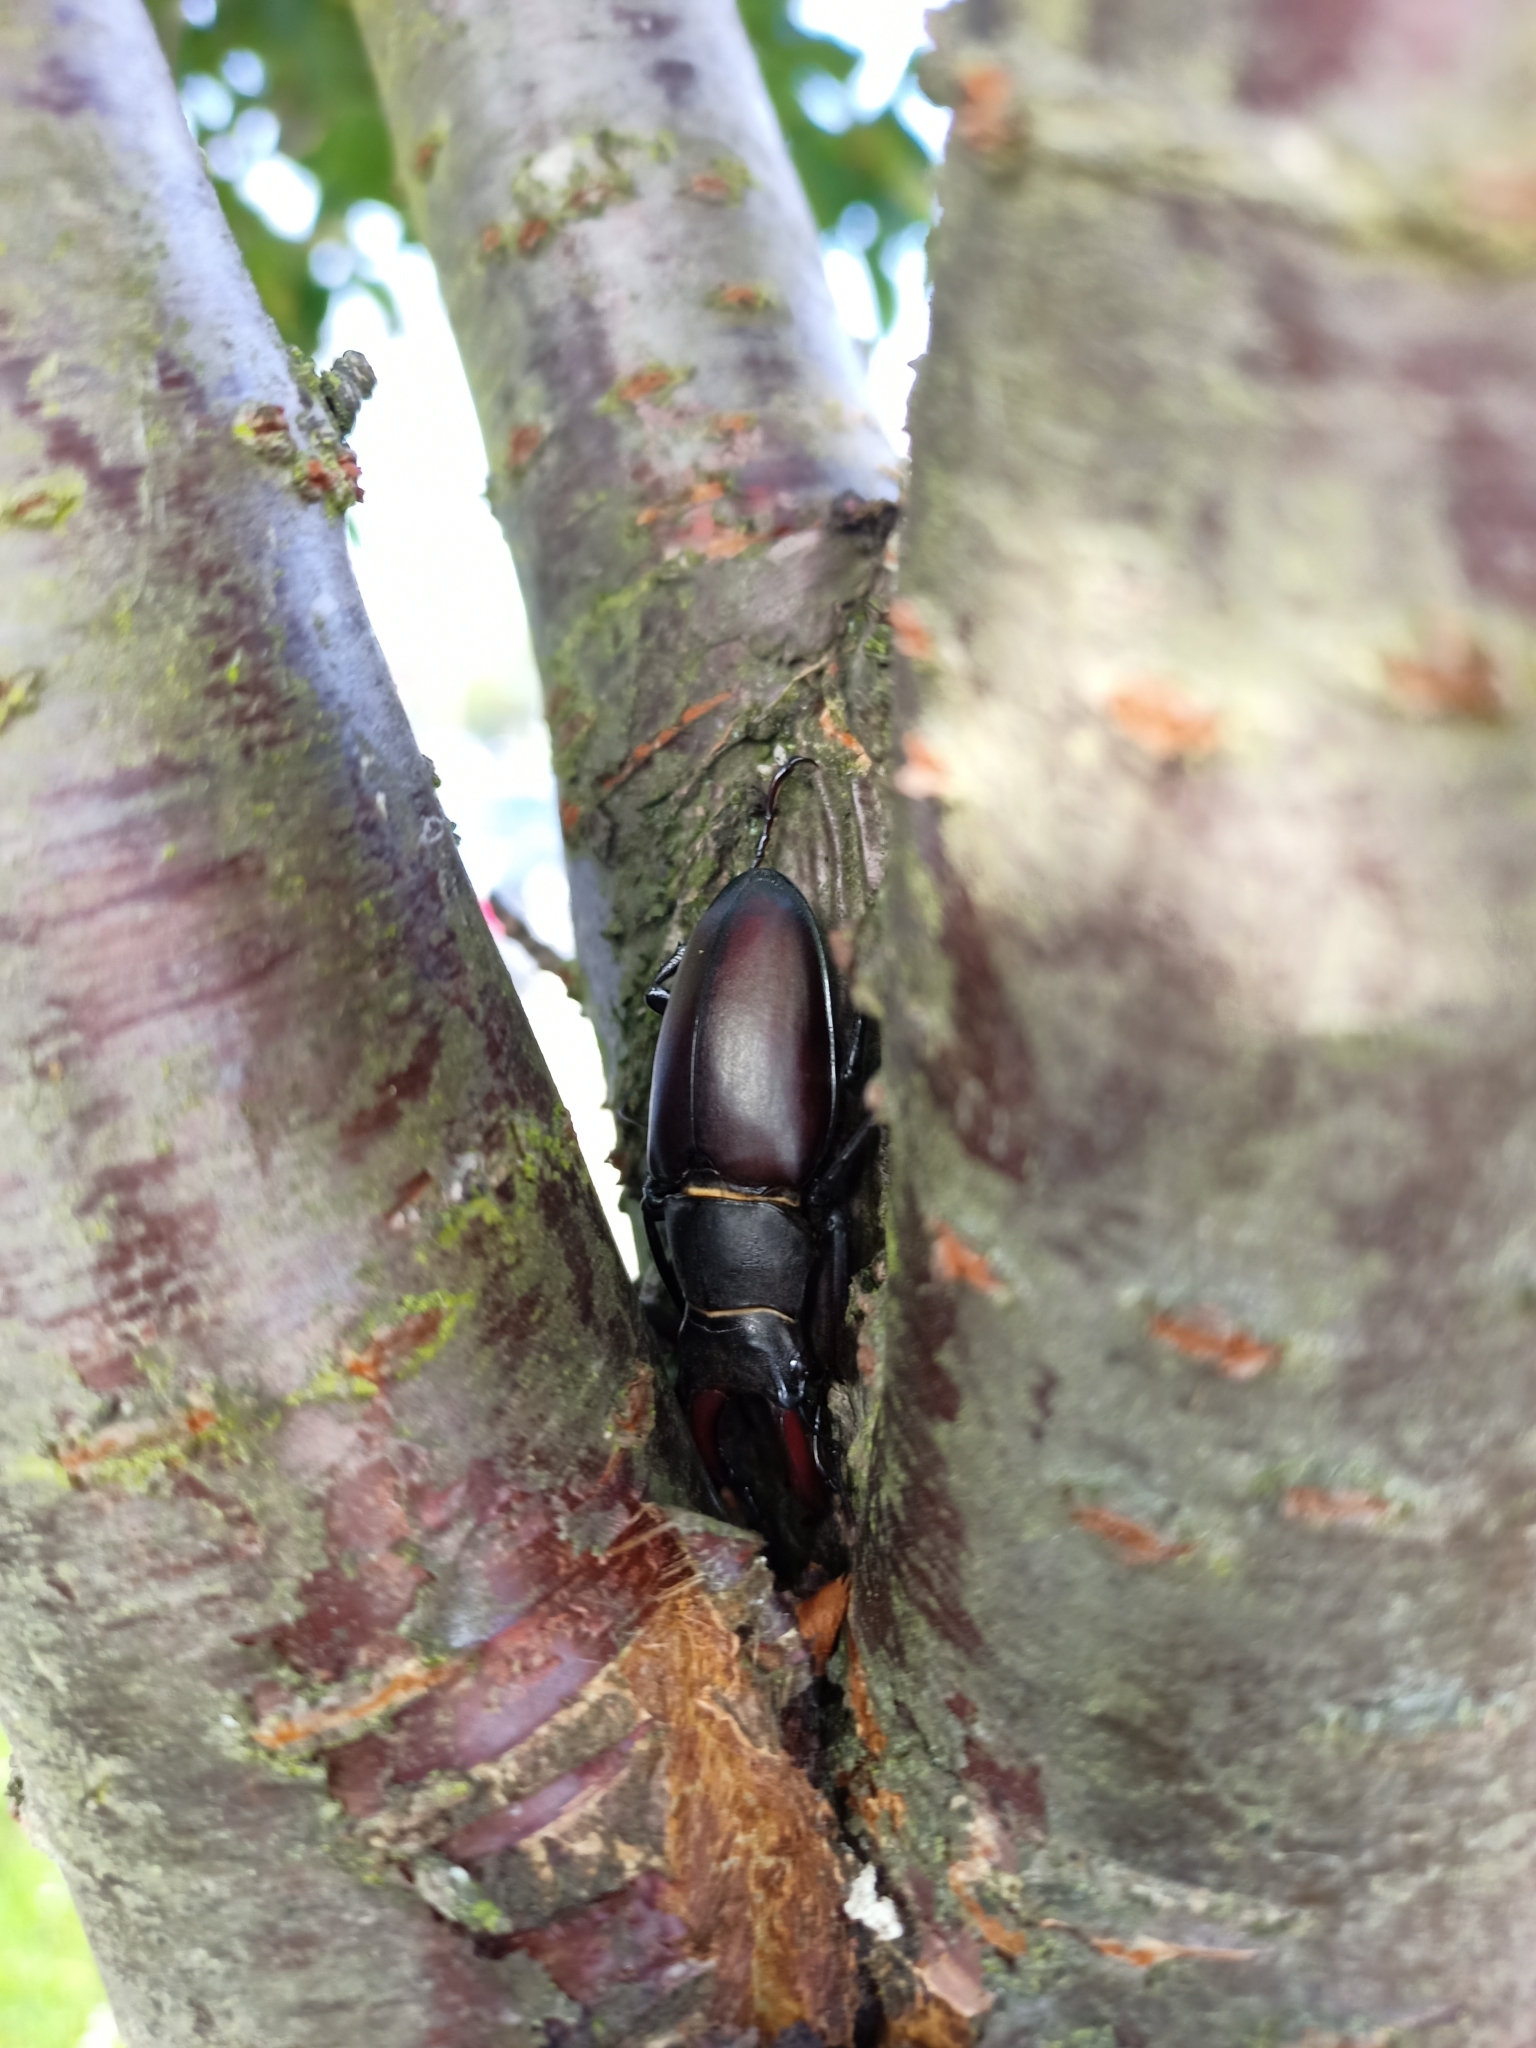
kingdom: Animalia
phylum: Arthropoda
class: Insecta
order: Coleoptera
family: Lucanidae
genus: Lucanus
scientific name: Lucanus cervus
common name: Stag beetle
